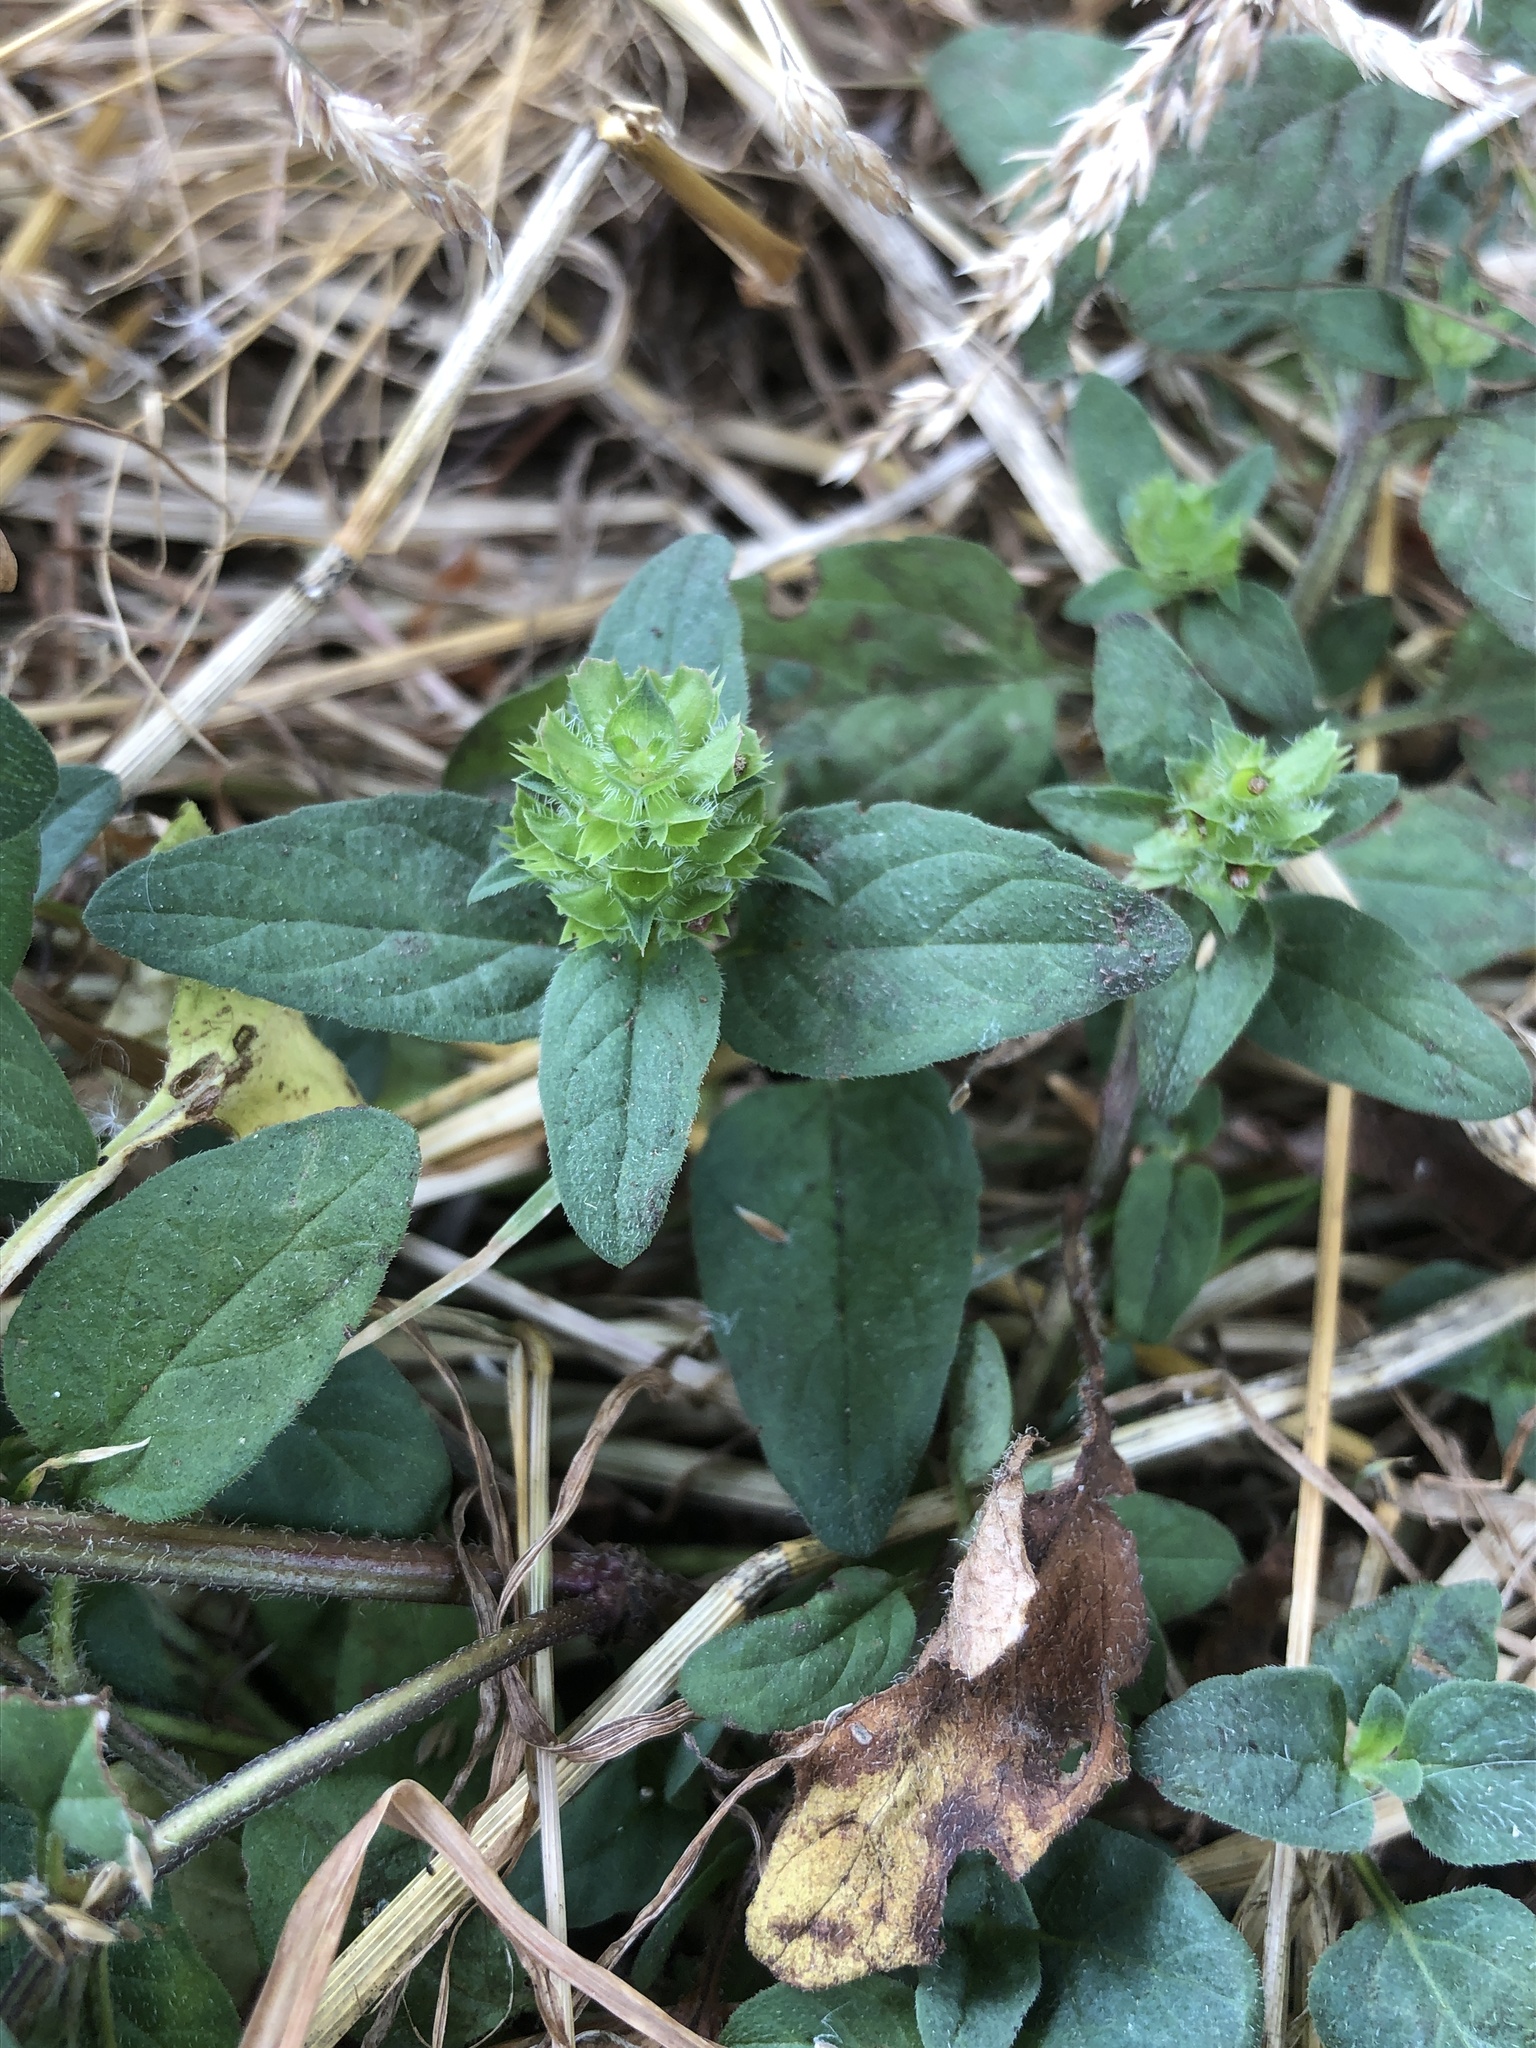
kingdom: Plantae
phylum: Tracheophyta
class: Magnoliopsida
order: Lamiales
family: Lamiaceae
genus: Prunella
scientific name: Prunella vulgaris
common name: Heal-all
